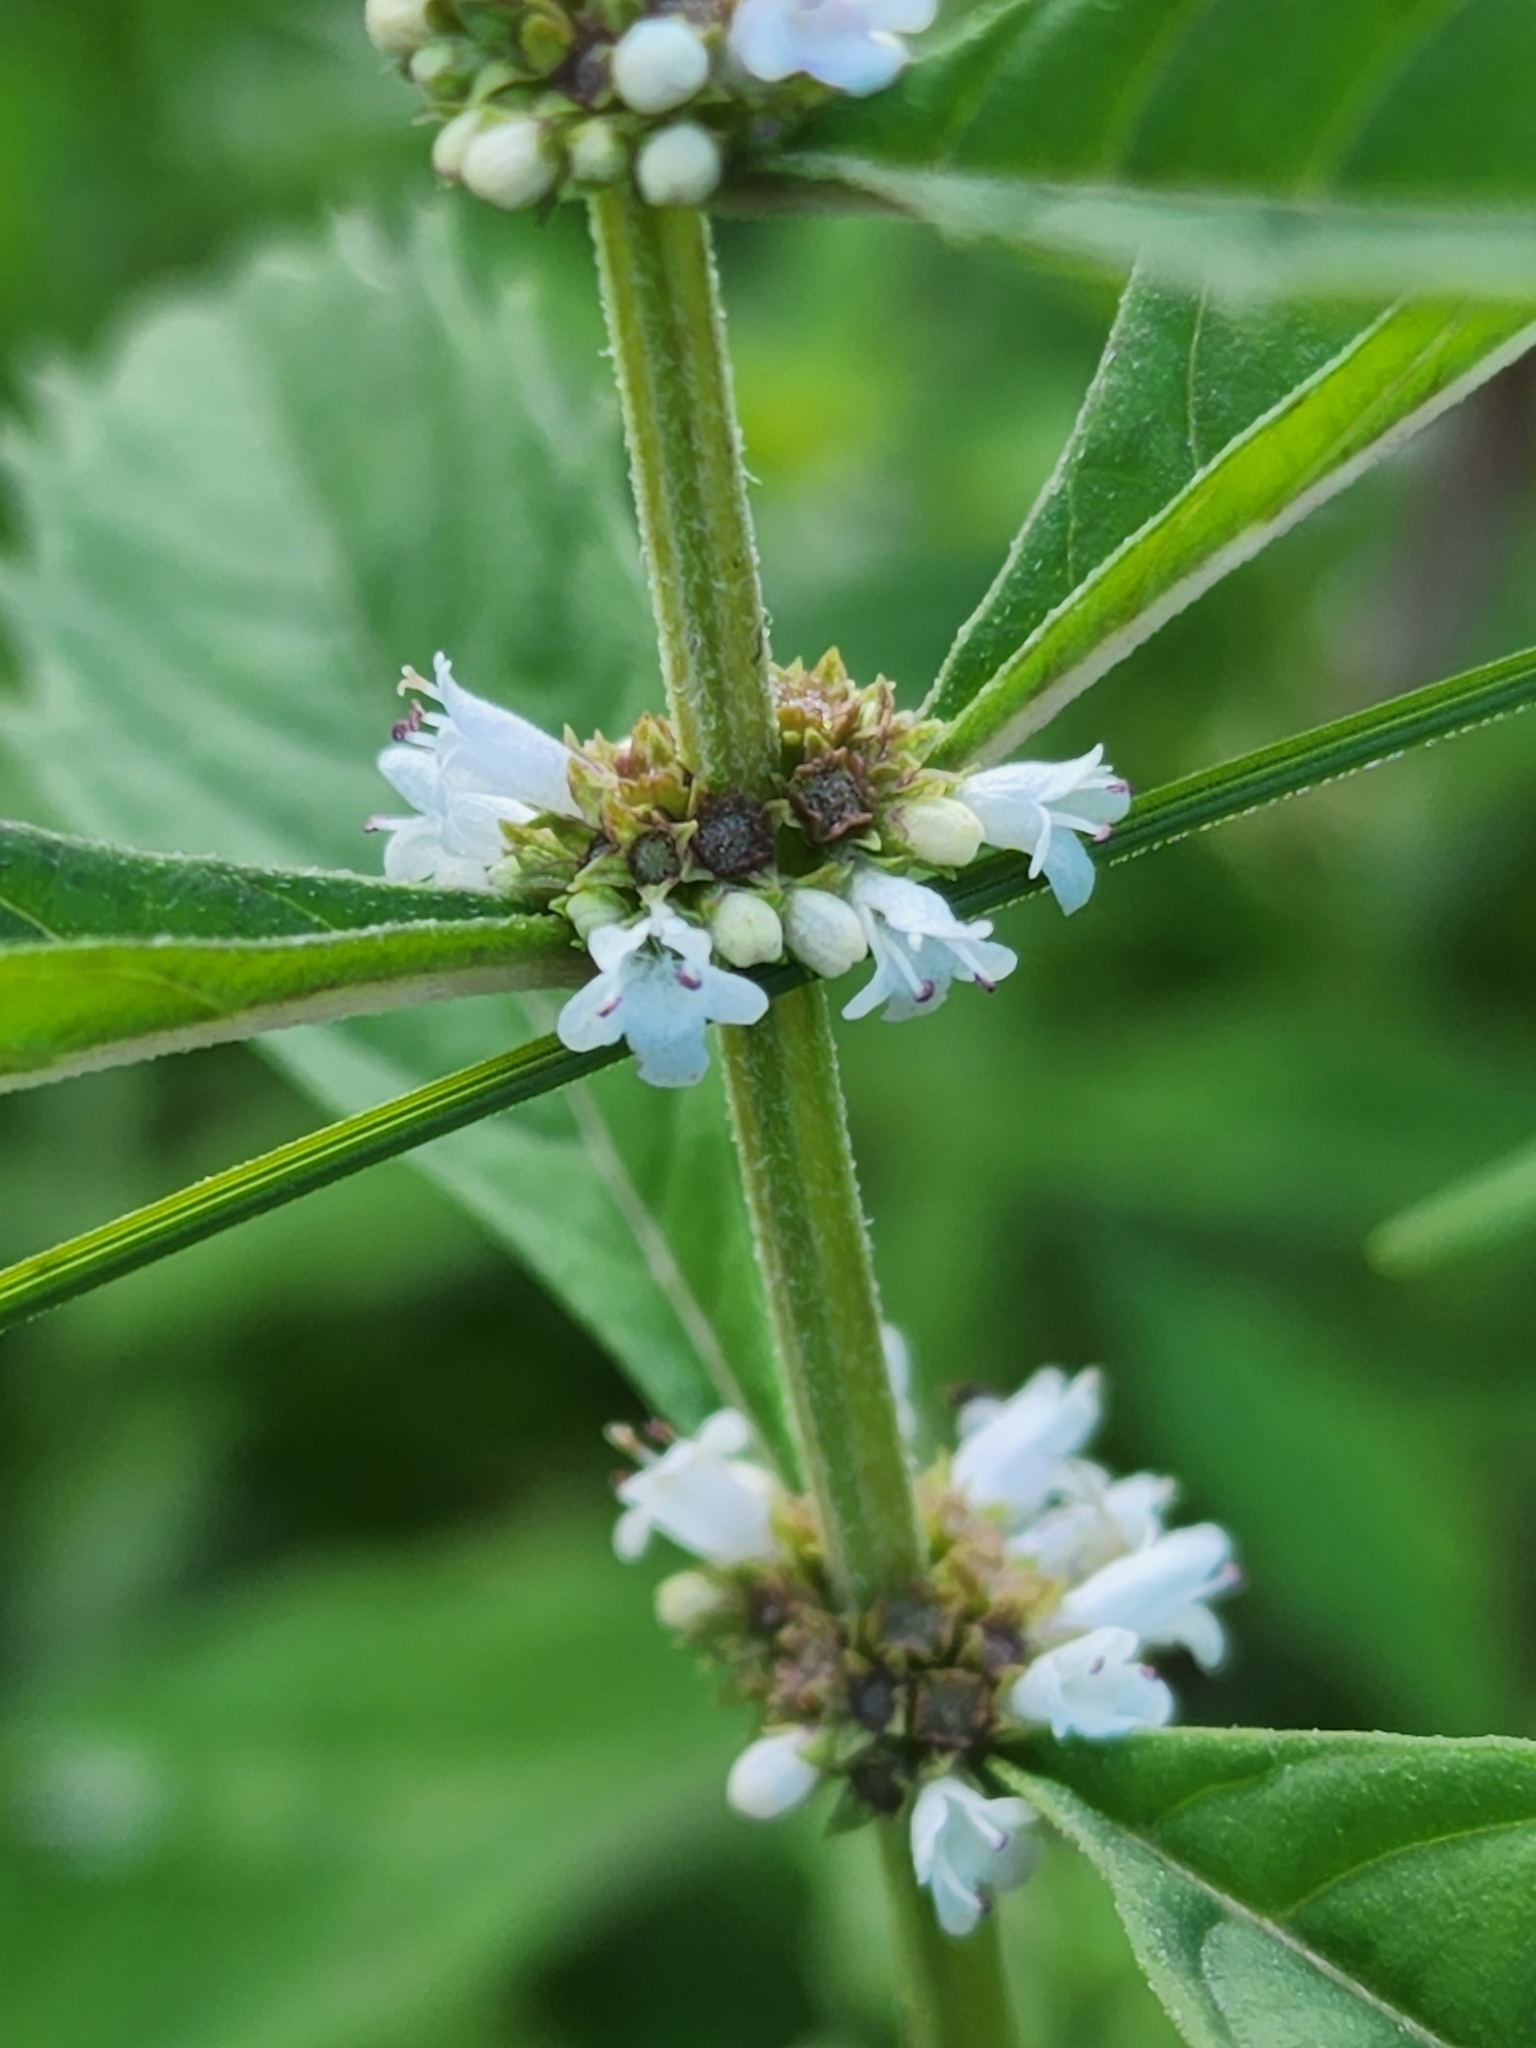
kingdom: Plantae
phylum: Tracheophyta
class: Magnoliopsida
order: Lamiales
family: Lamiaceae
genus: Lycopus
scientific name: Lycopus uniflorus
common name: Northern bugleweed
